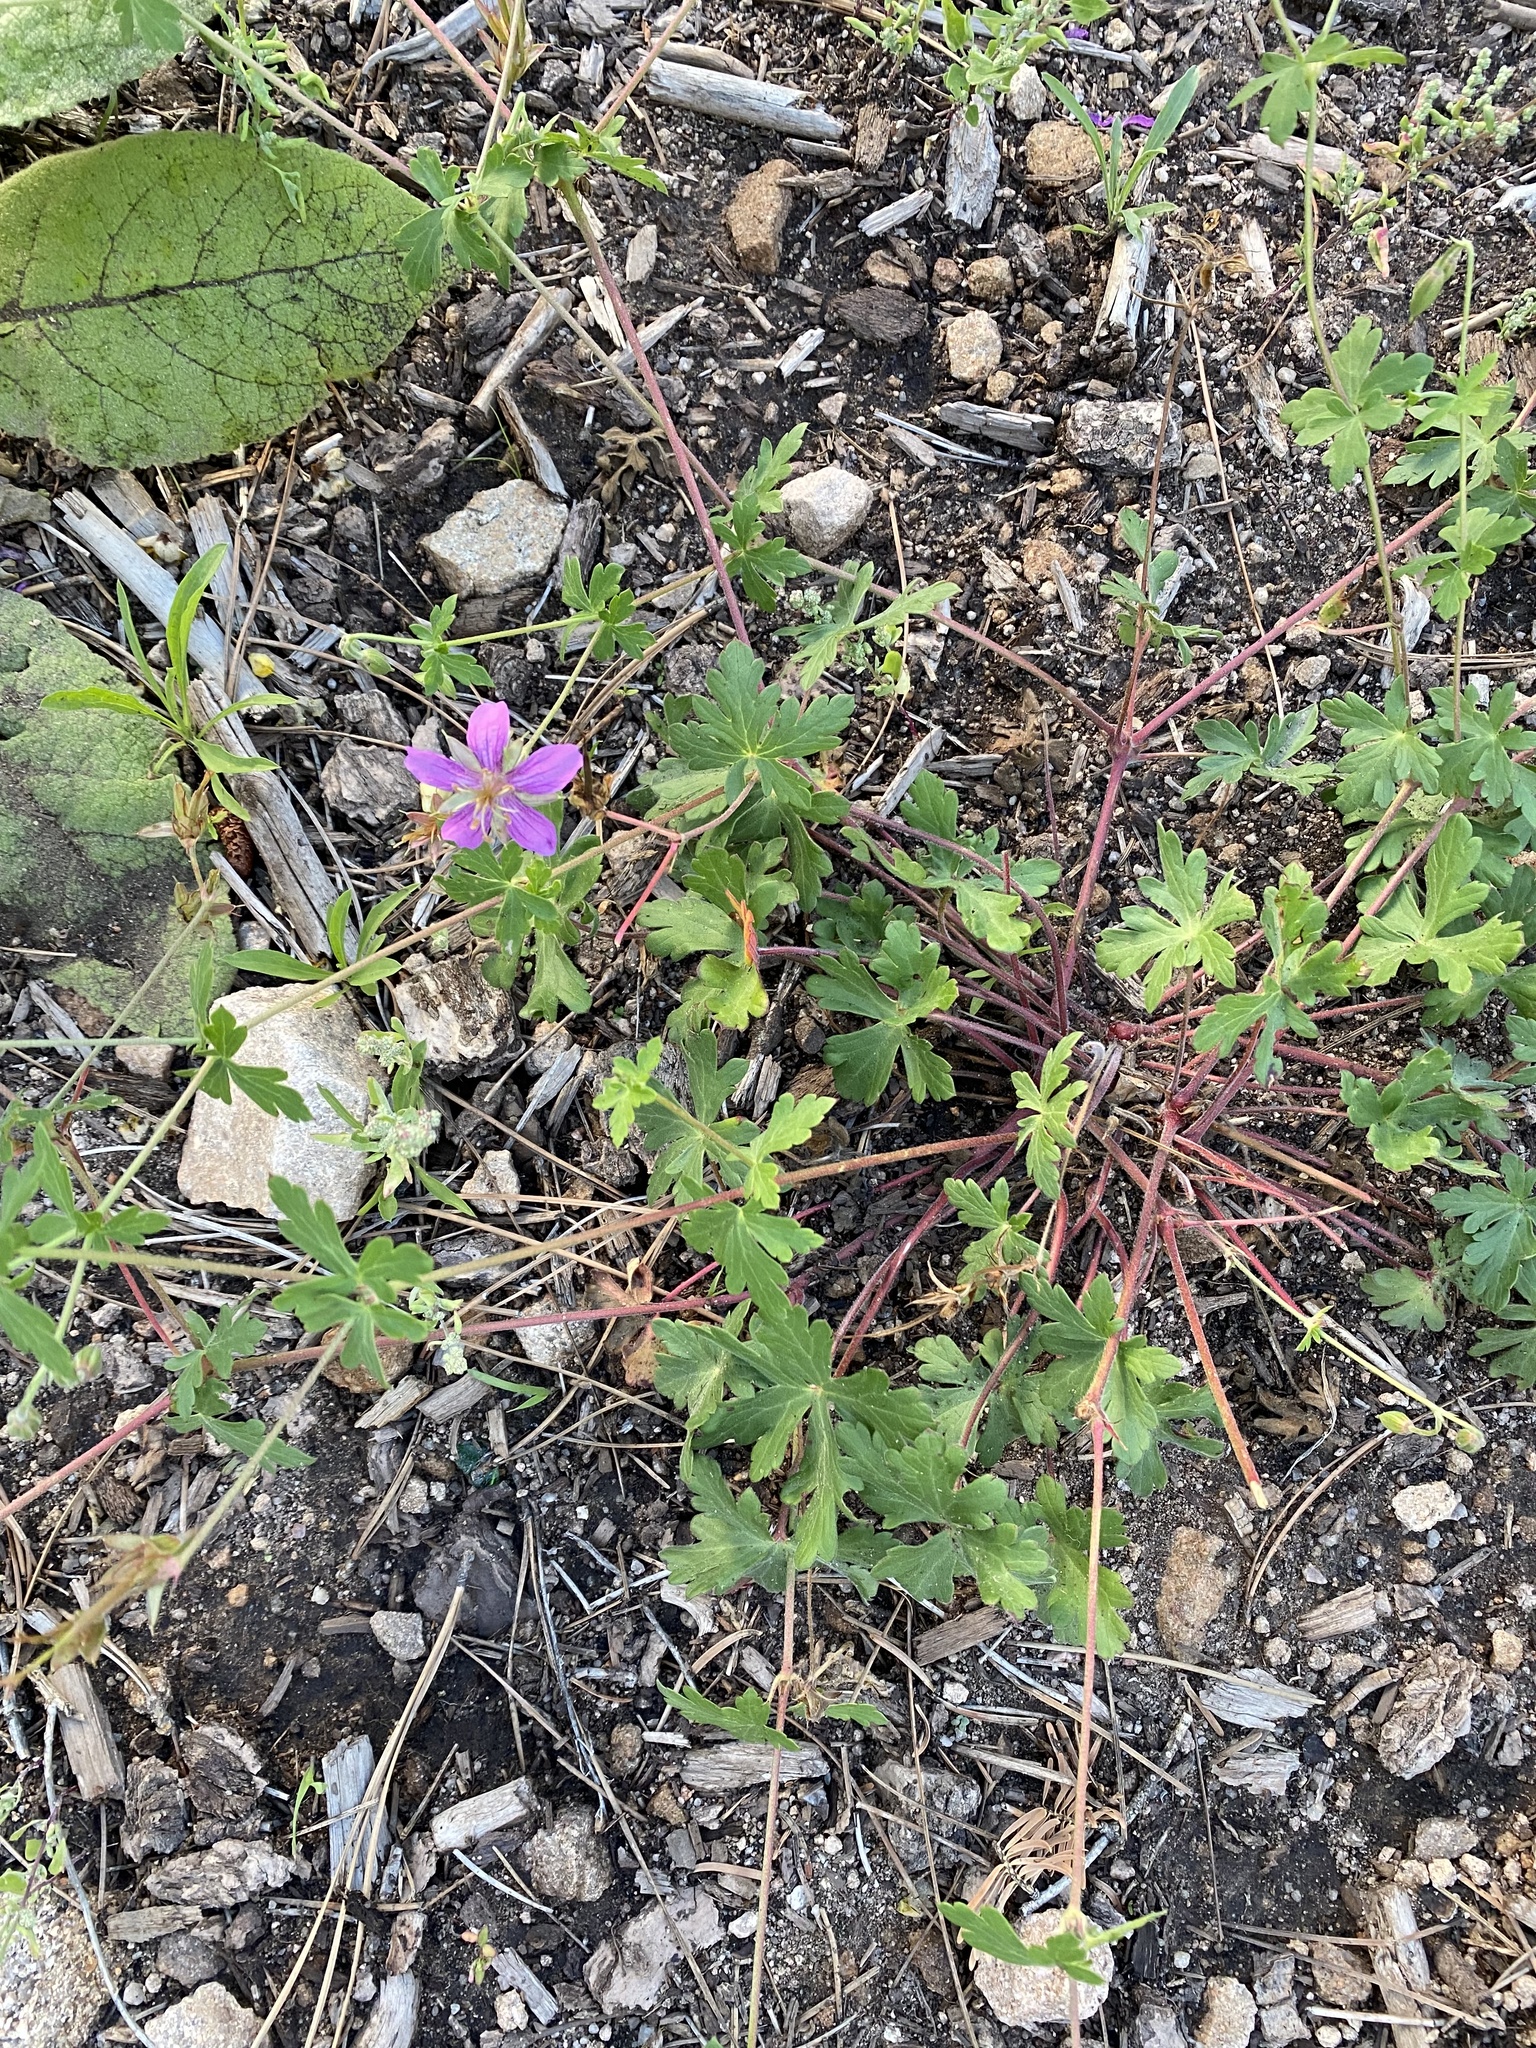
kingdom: Plantae
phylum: Tracheophyta
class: Magnoliopsida
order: Geraniales
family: Geraniaceae
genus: Geranium
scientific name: Geranium caespitosum
